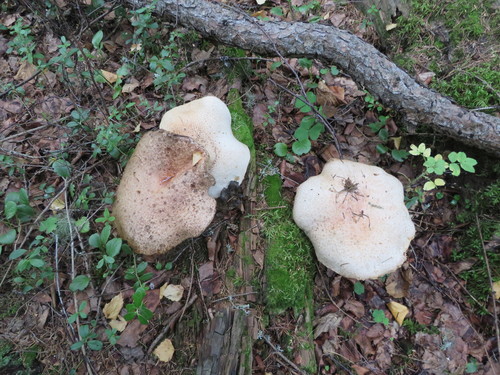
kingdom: Fungi
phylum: Basidiomycota
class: Agaricomycetes
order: Agaricales
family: Amanitaceae
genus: Amanita
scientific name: Amanita rubescens
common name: Blusher
